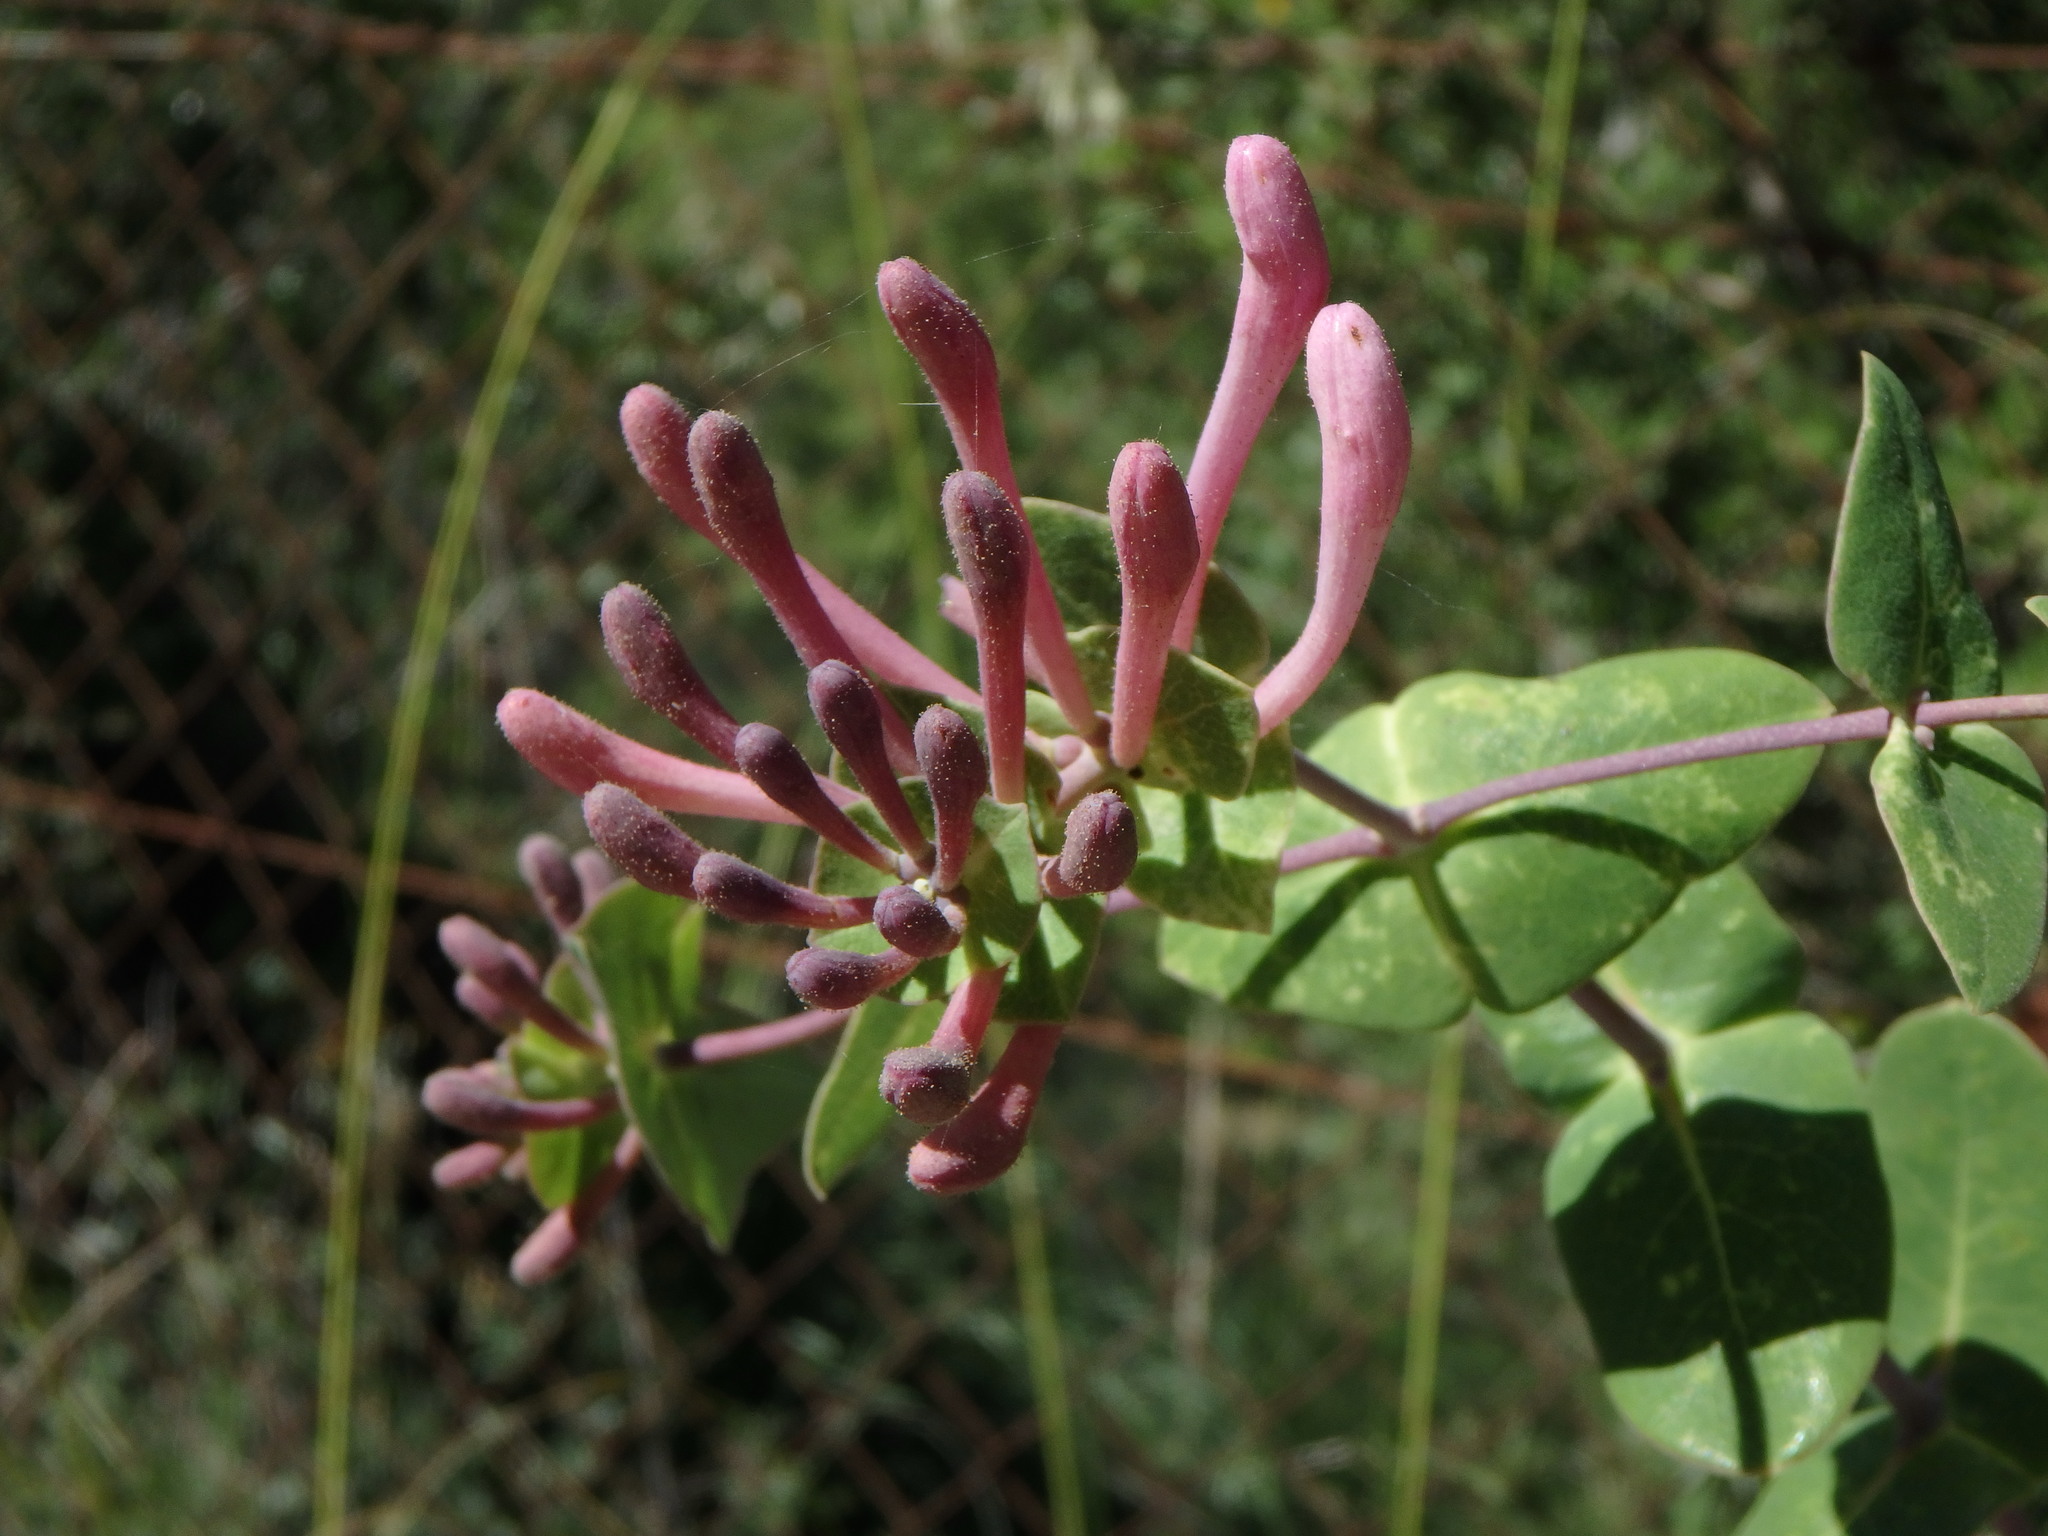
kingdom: Plantae
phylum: Tracheophyta
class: Magnoliopsida
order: Dipsacales
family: Caprifoliaceae
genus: Lonicera
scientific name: Lonicera implexa
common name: Minorca honeysuckle
